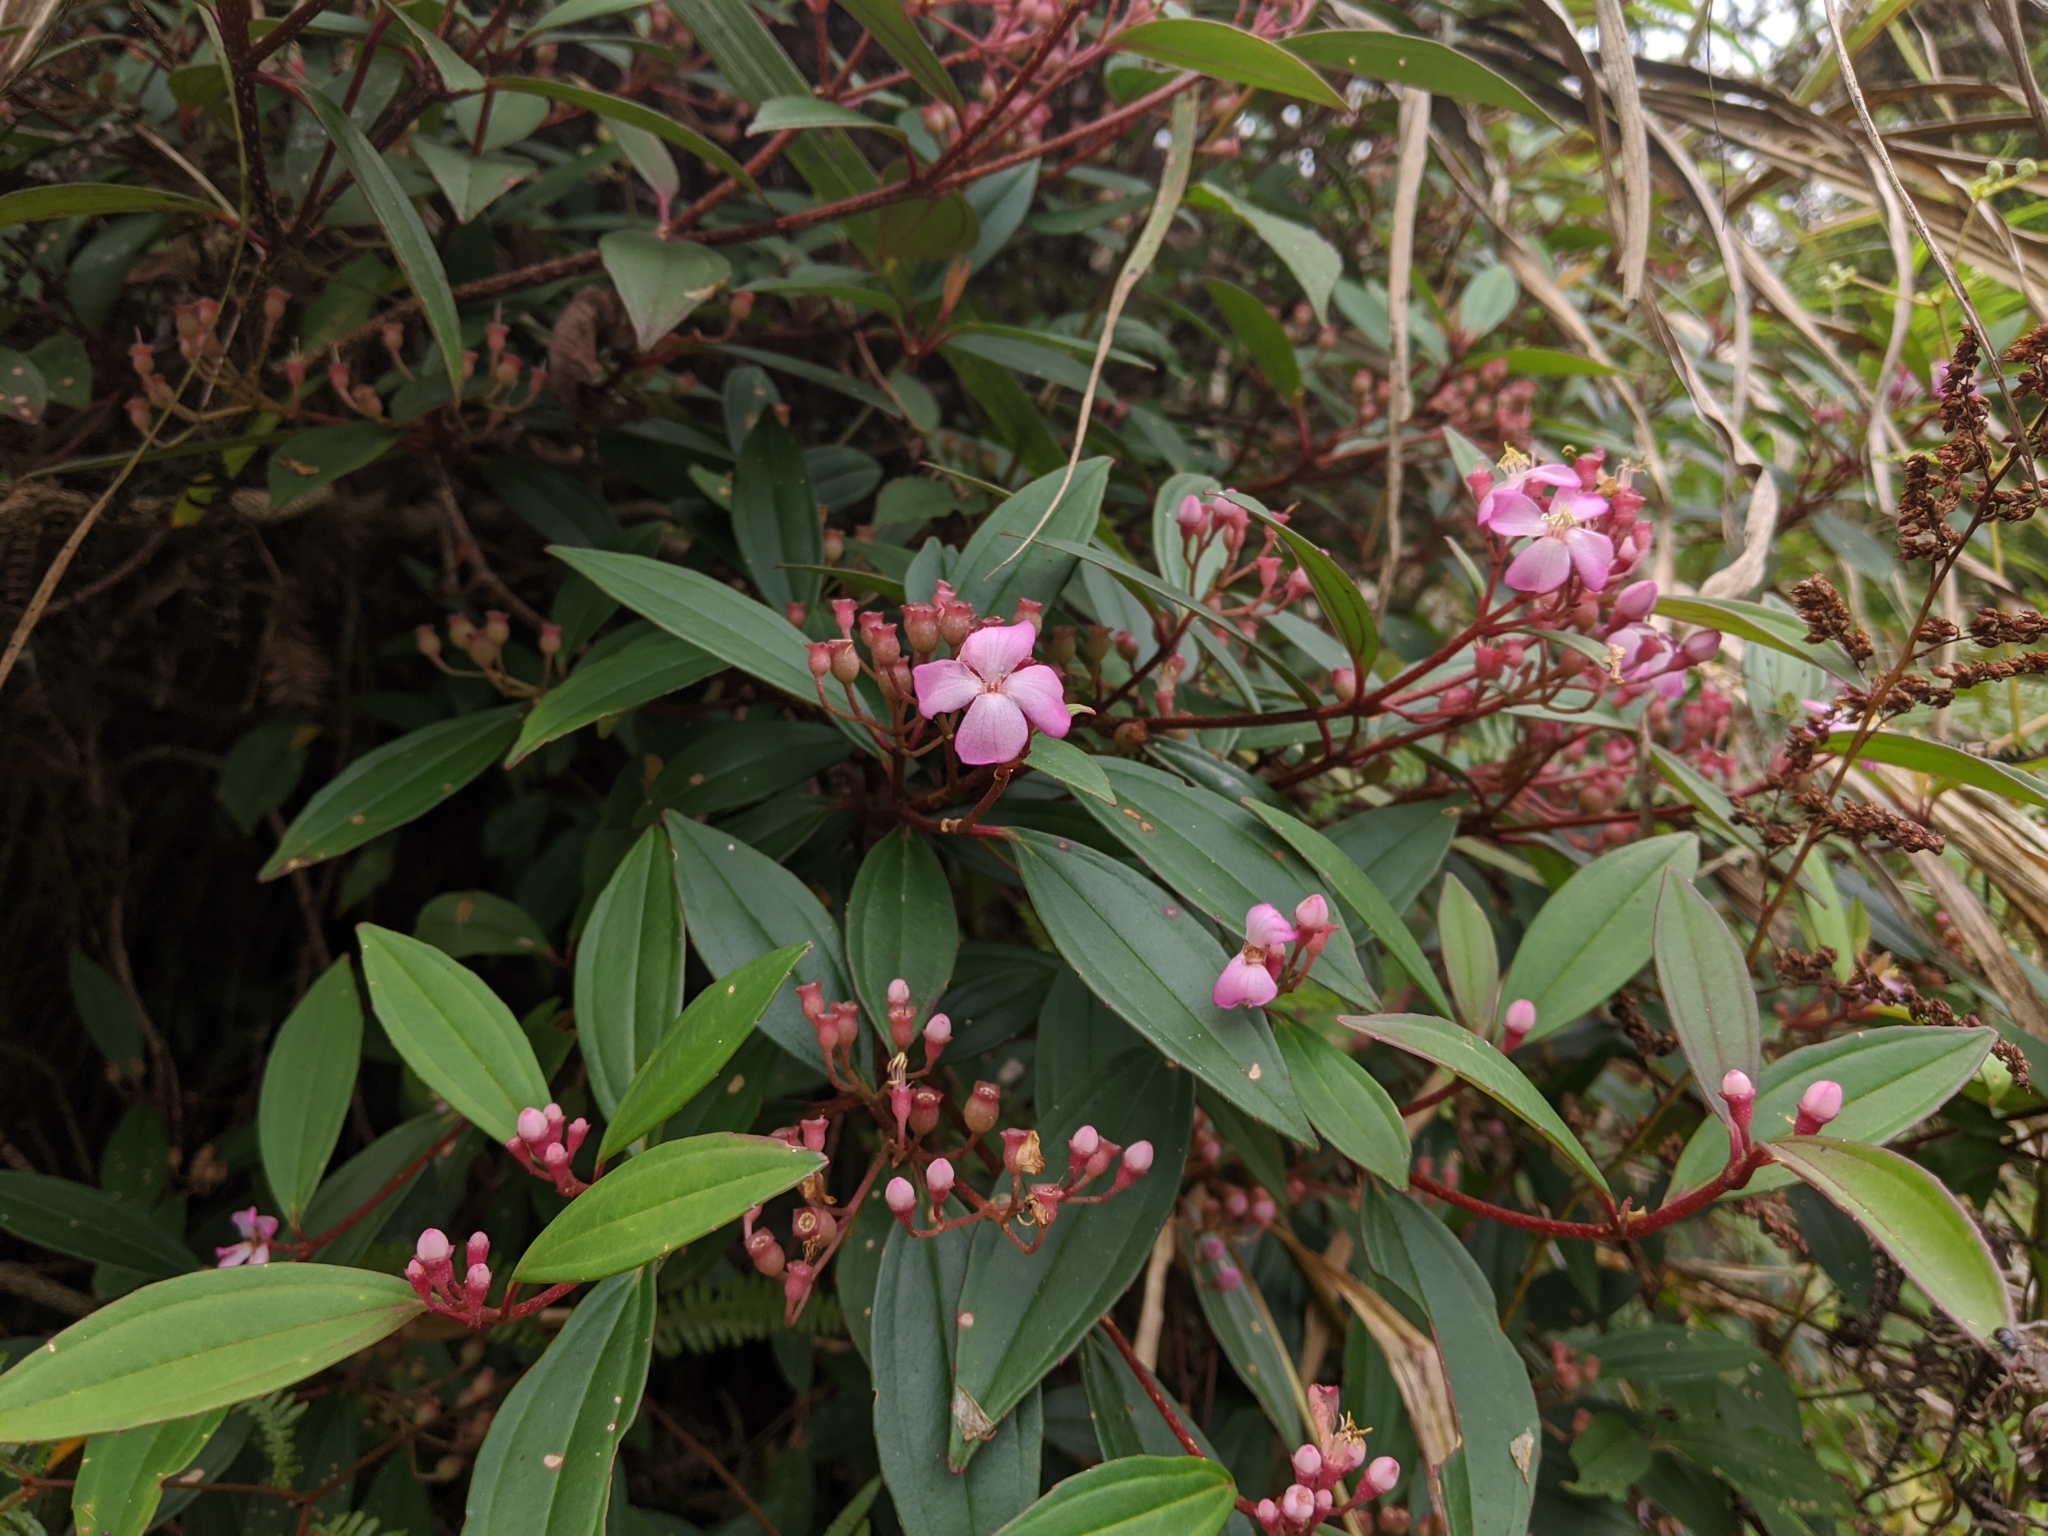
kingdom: Plantae
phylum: Tracheophyta
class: Magnoliopsida
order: Myrtales
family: Melastomataceae
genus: Medinilla
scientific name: Medinilla fengii
